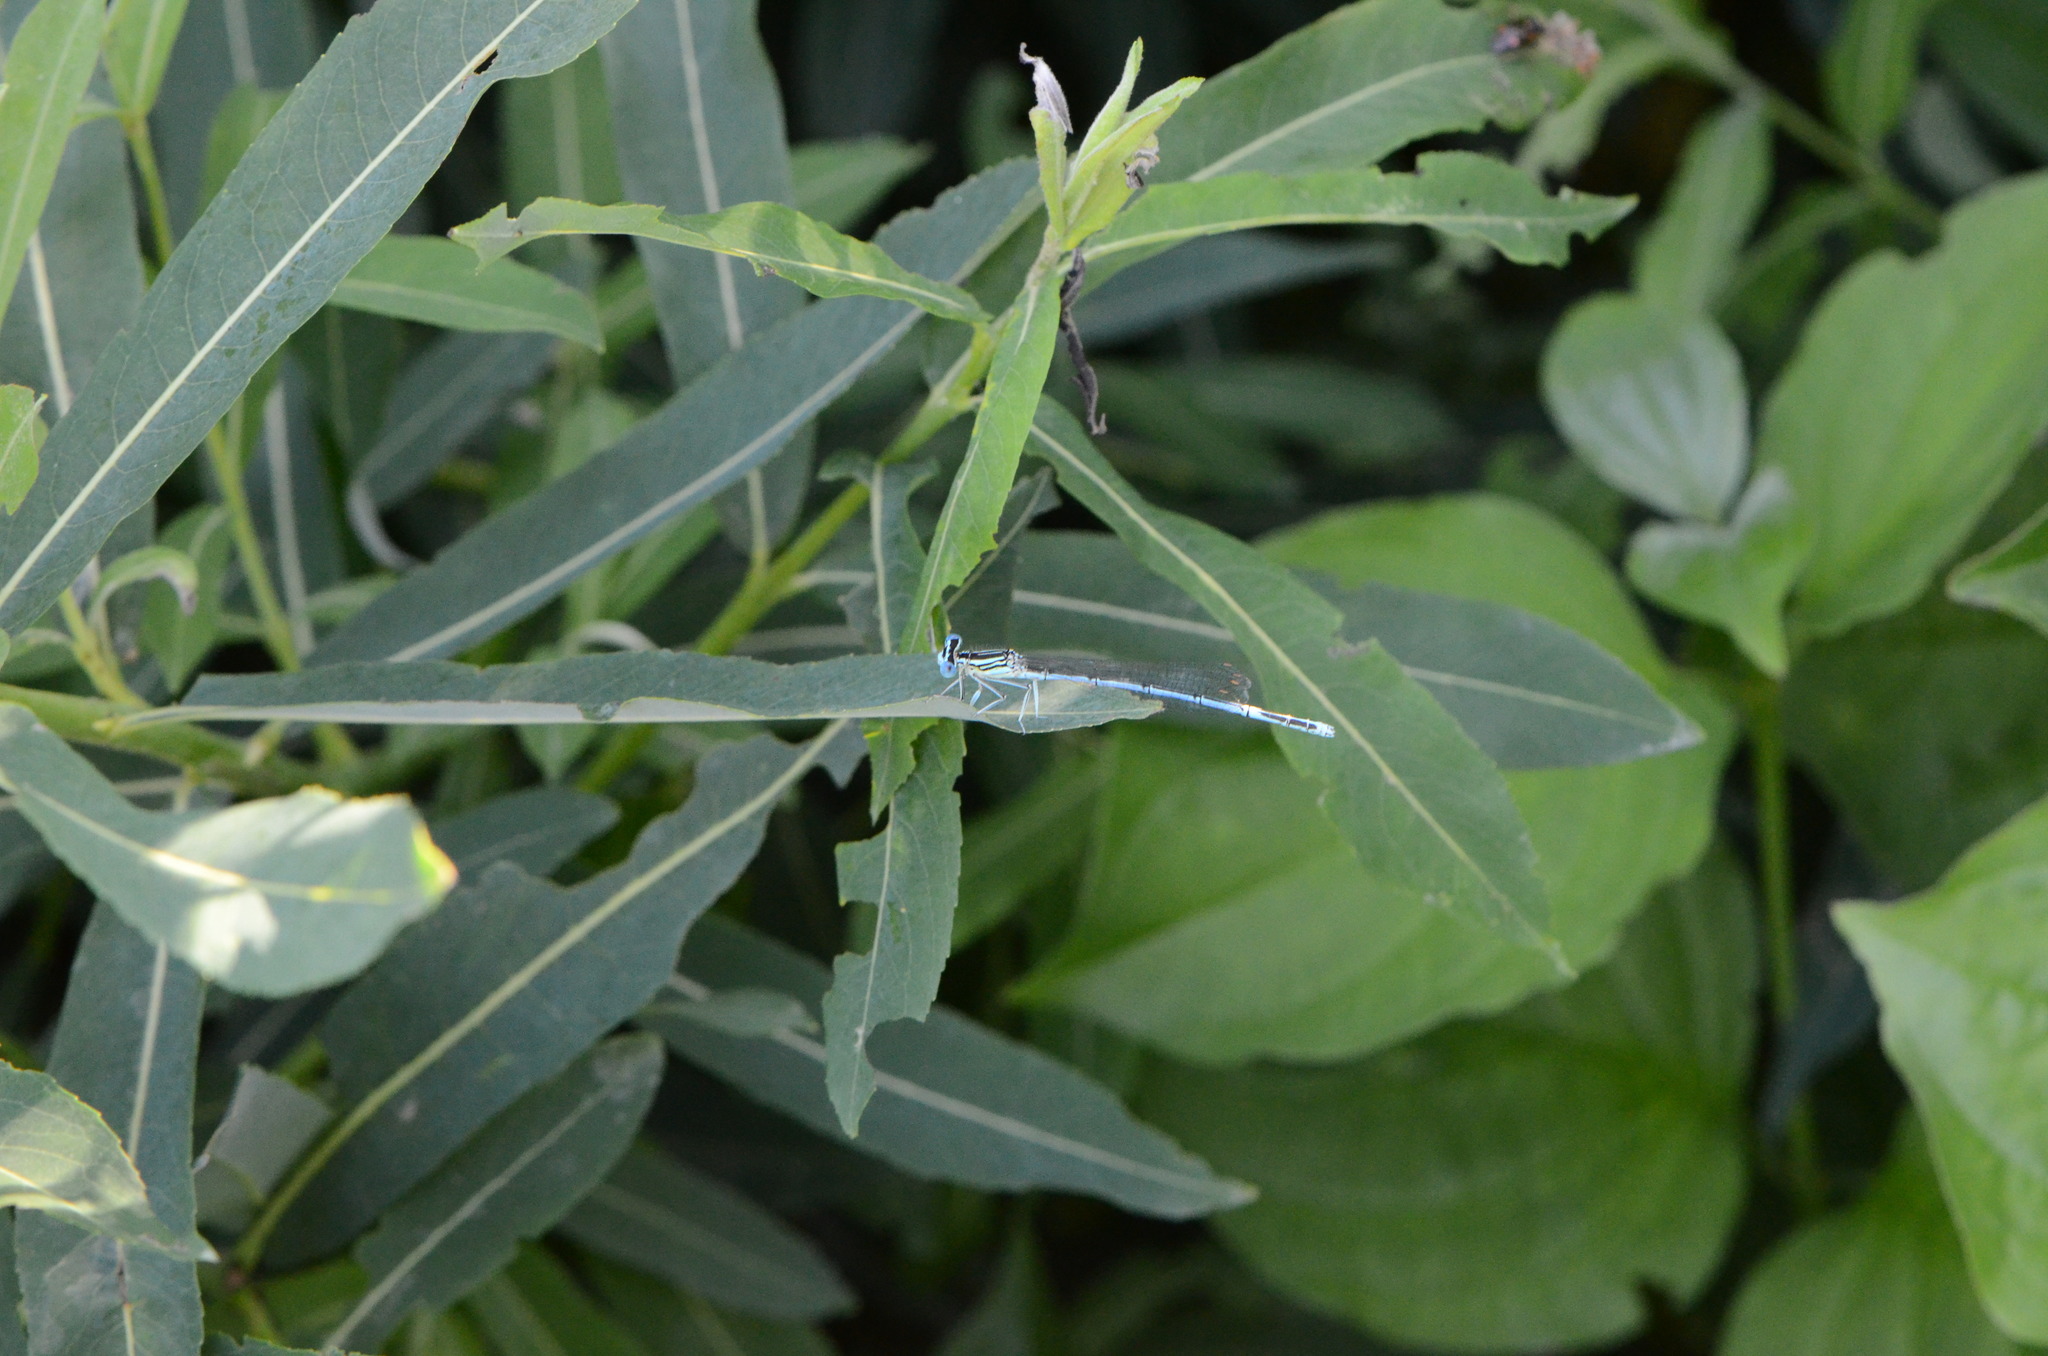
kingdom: Animalia
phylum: Arthropoda
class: Insecta
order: Odonata
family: Platycnemididae
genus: Platycnemis
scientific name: Platycnemis pennipes
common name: White-legged damselfly
